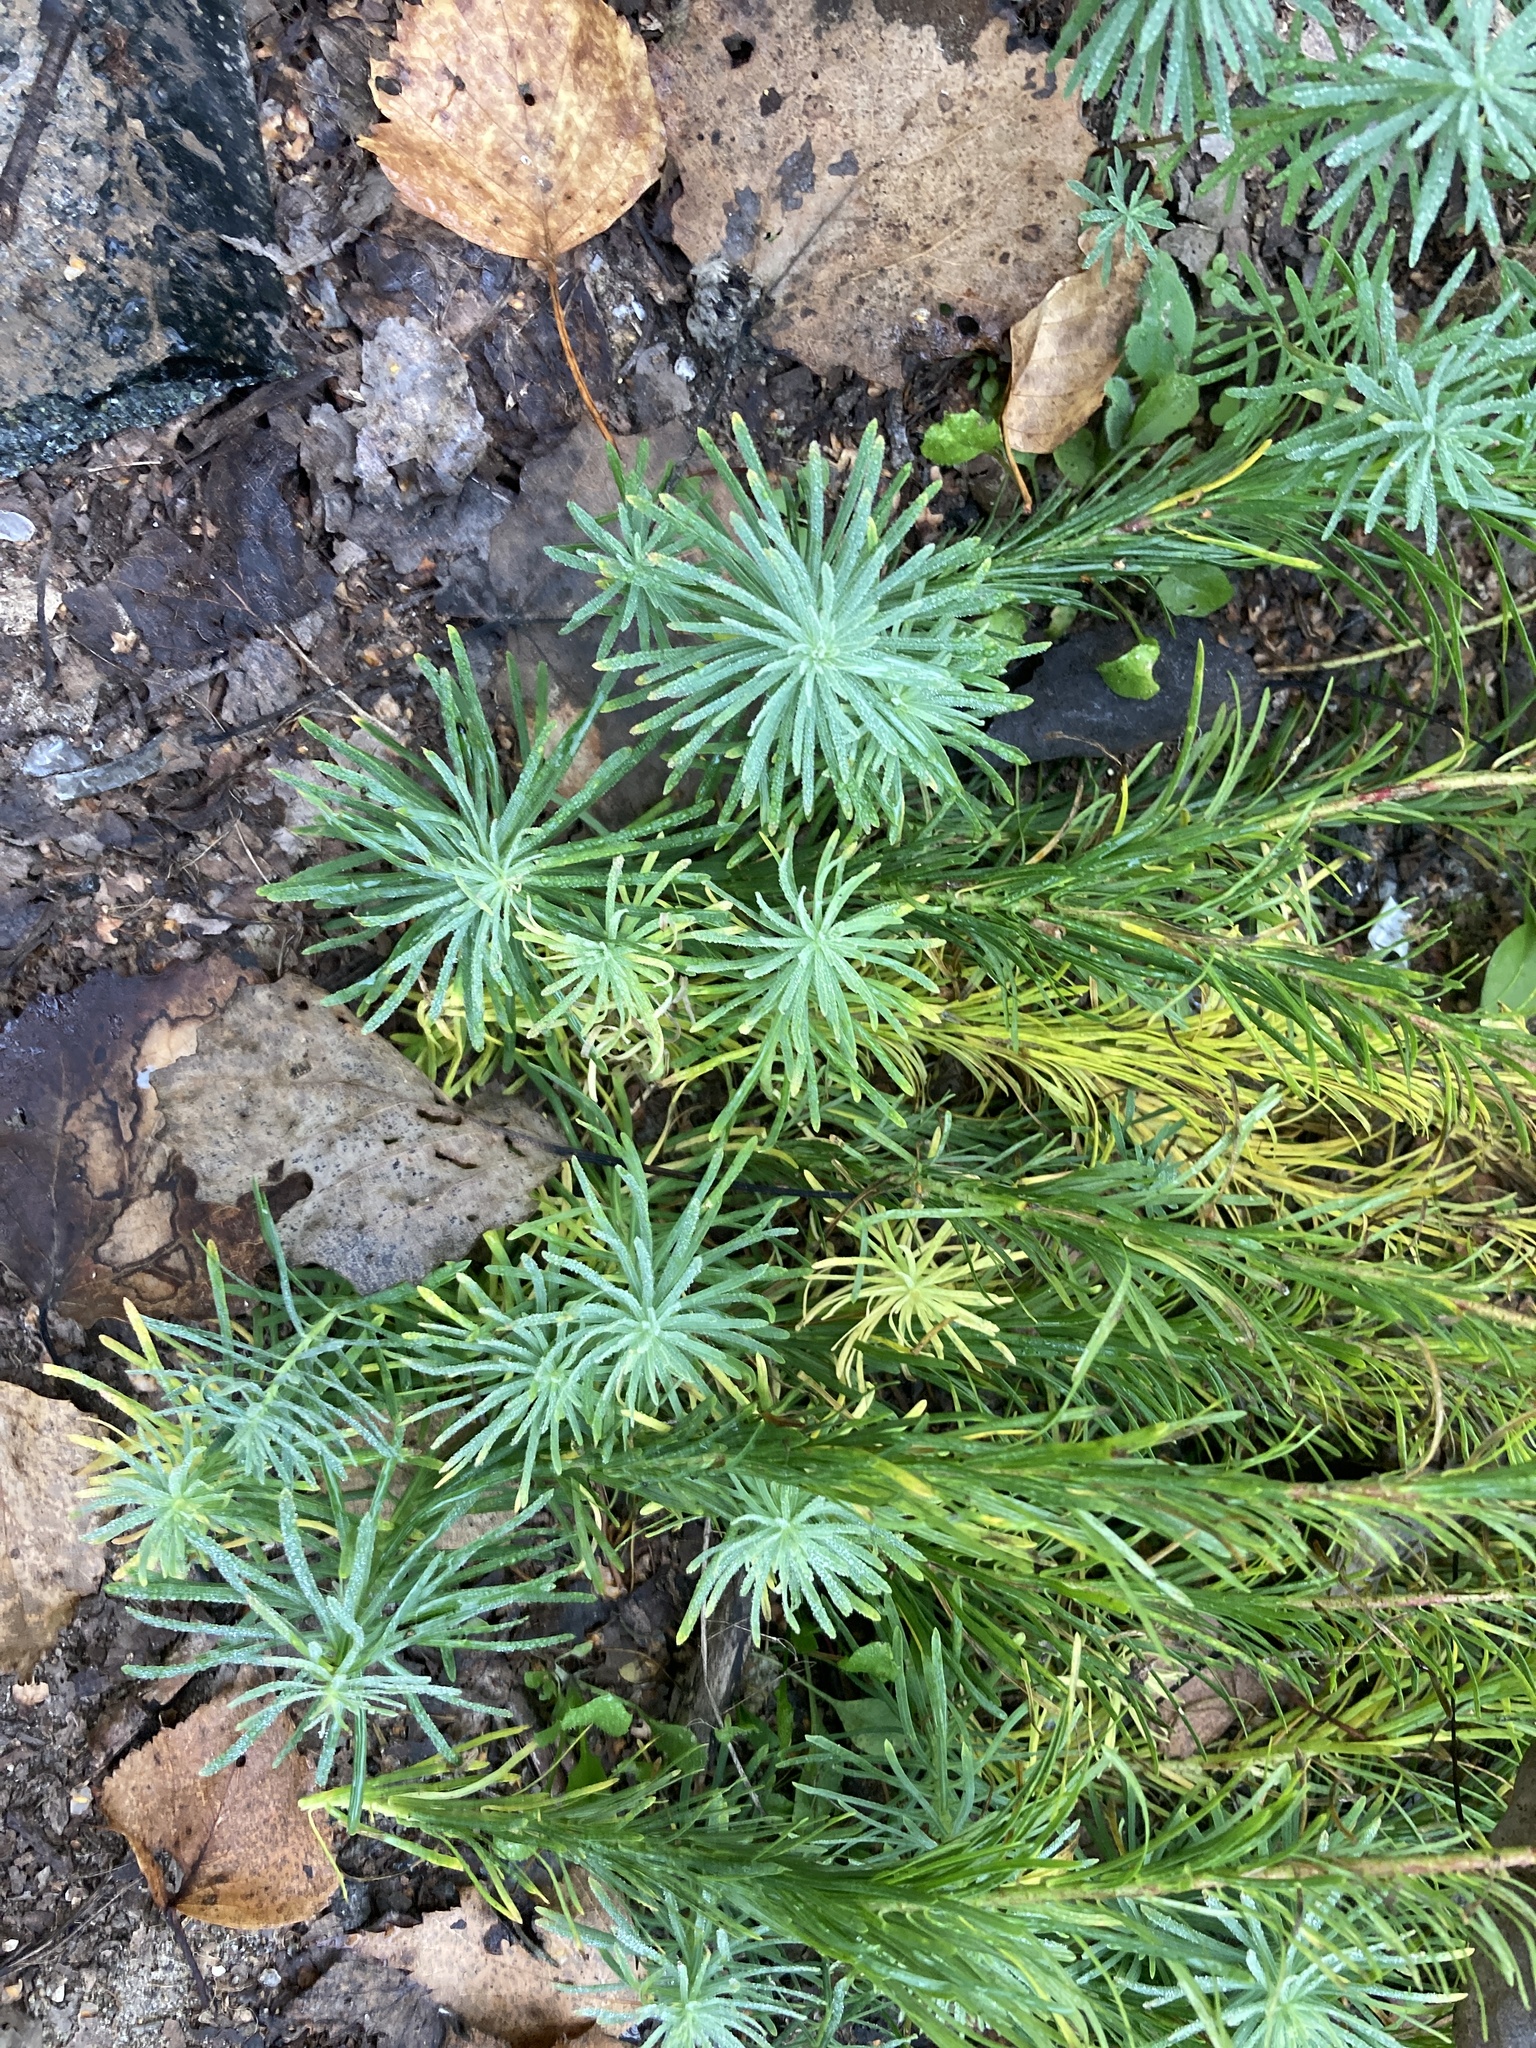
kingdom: Plantae
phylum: Tracheophyta
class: Magnoliopsida
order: Malpighiales
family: Euphorbiaceae
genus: Euphorbia
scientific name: Euphorbia cyparissias
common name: Cypress spurge
